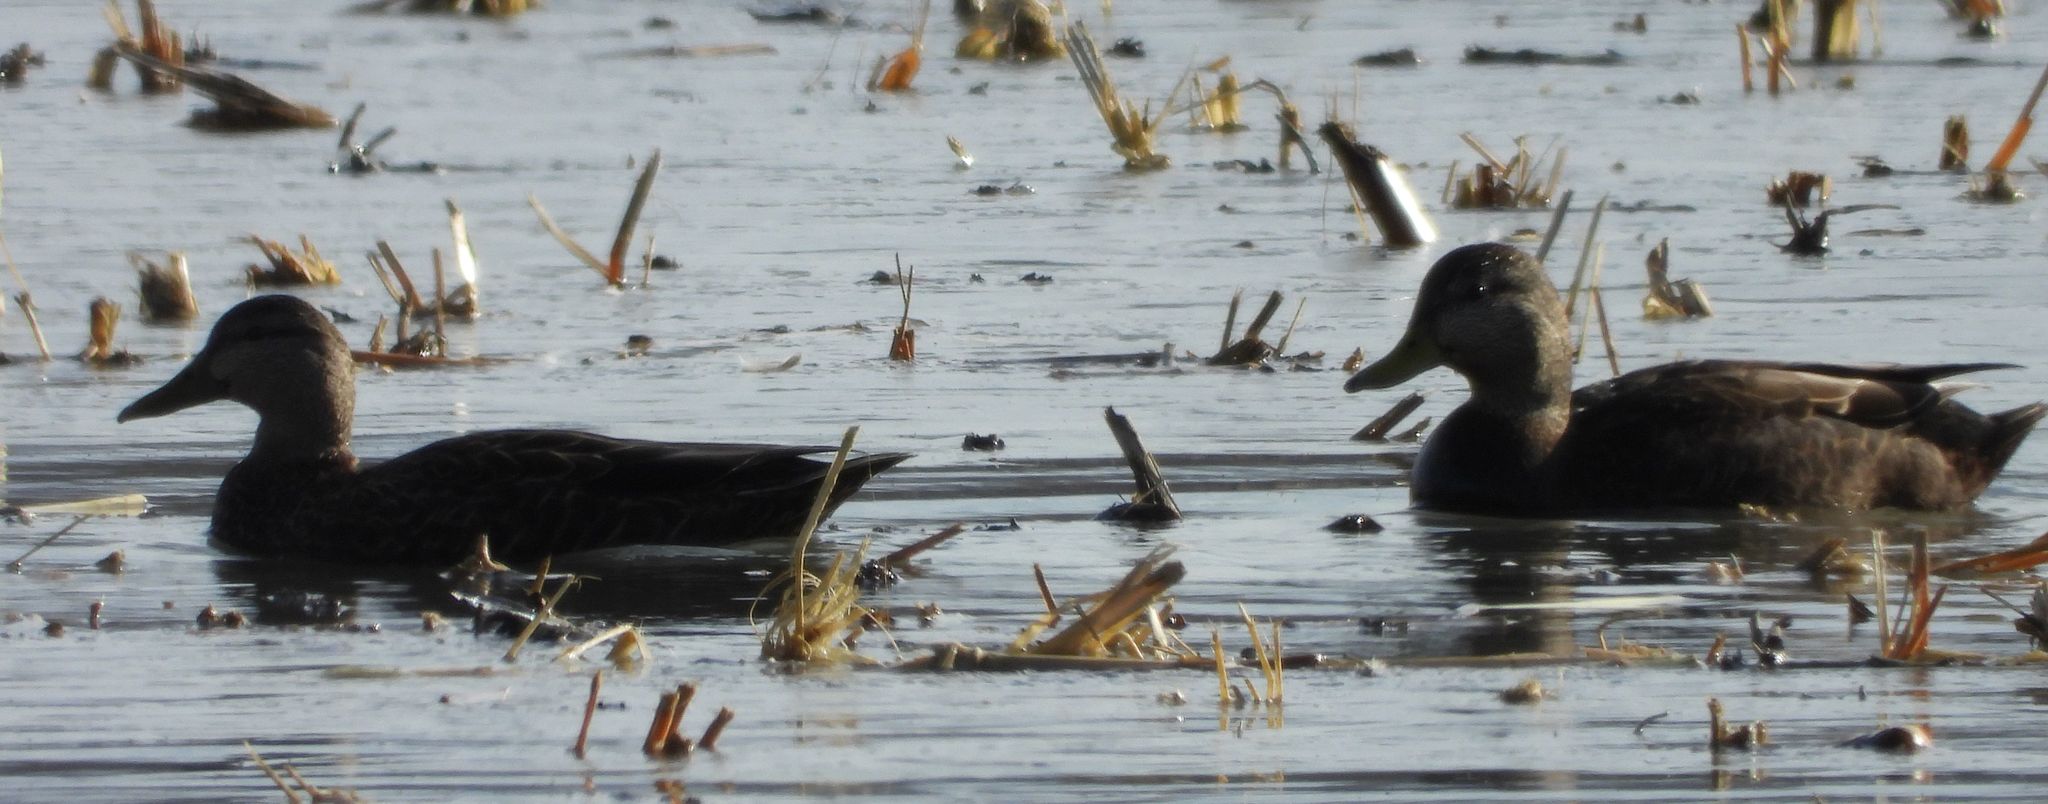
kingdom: Animalia
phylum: Chordata
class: Aves
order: Anseriformes
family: Anatidae
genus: Anas
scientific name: Anas rubripes
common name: American black duck
